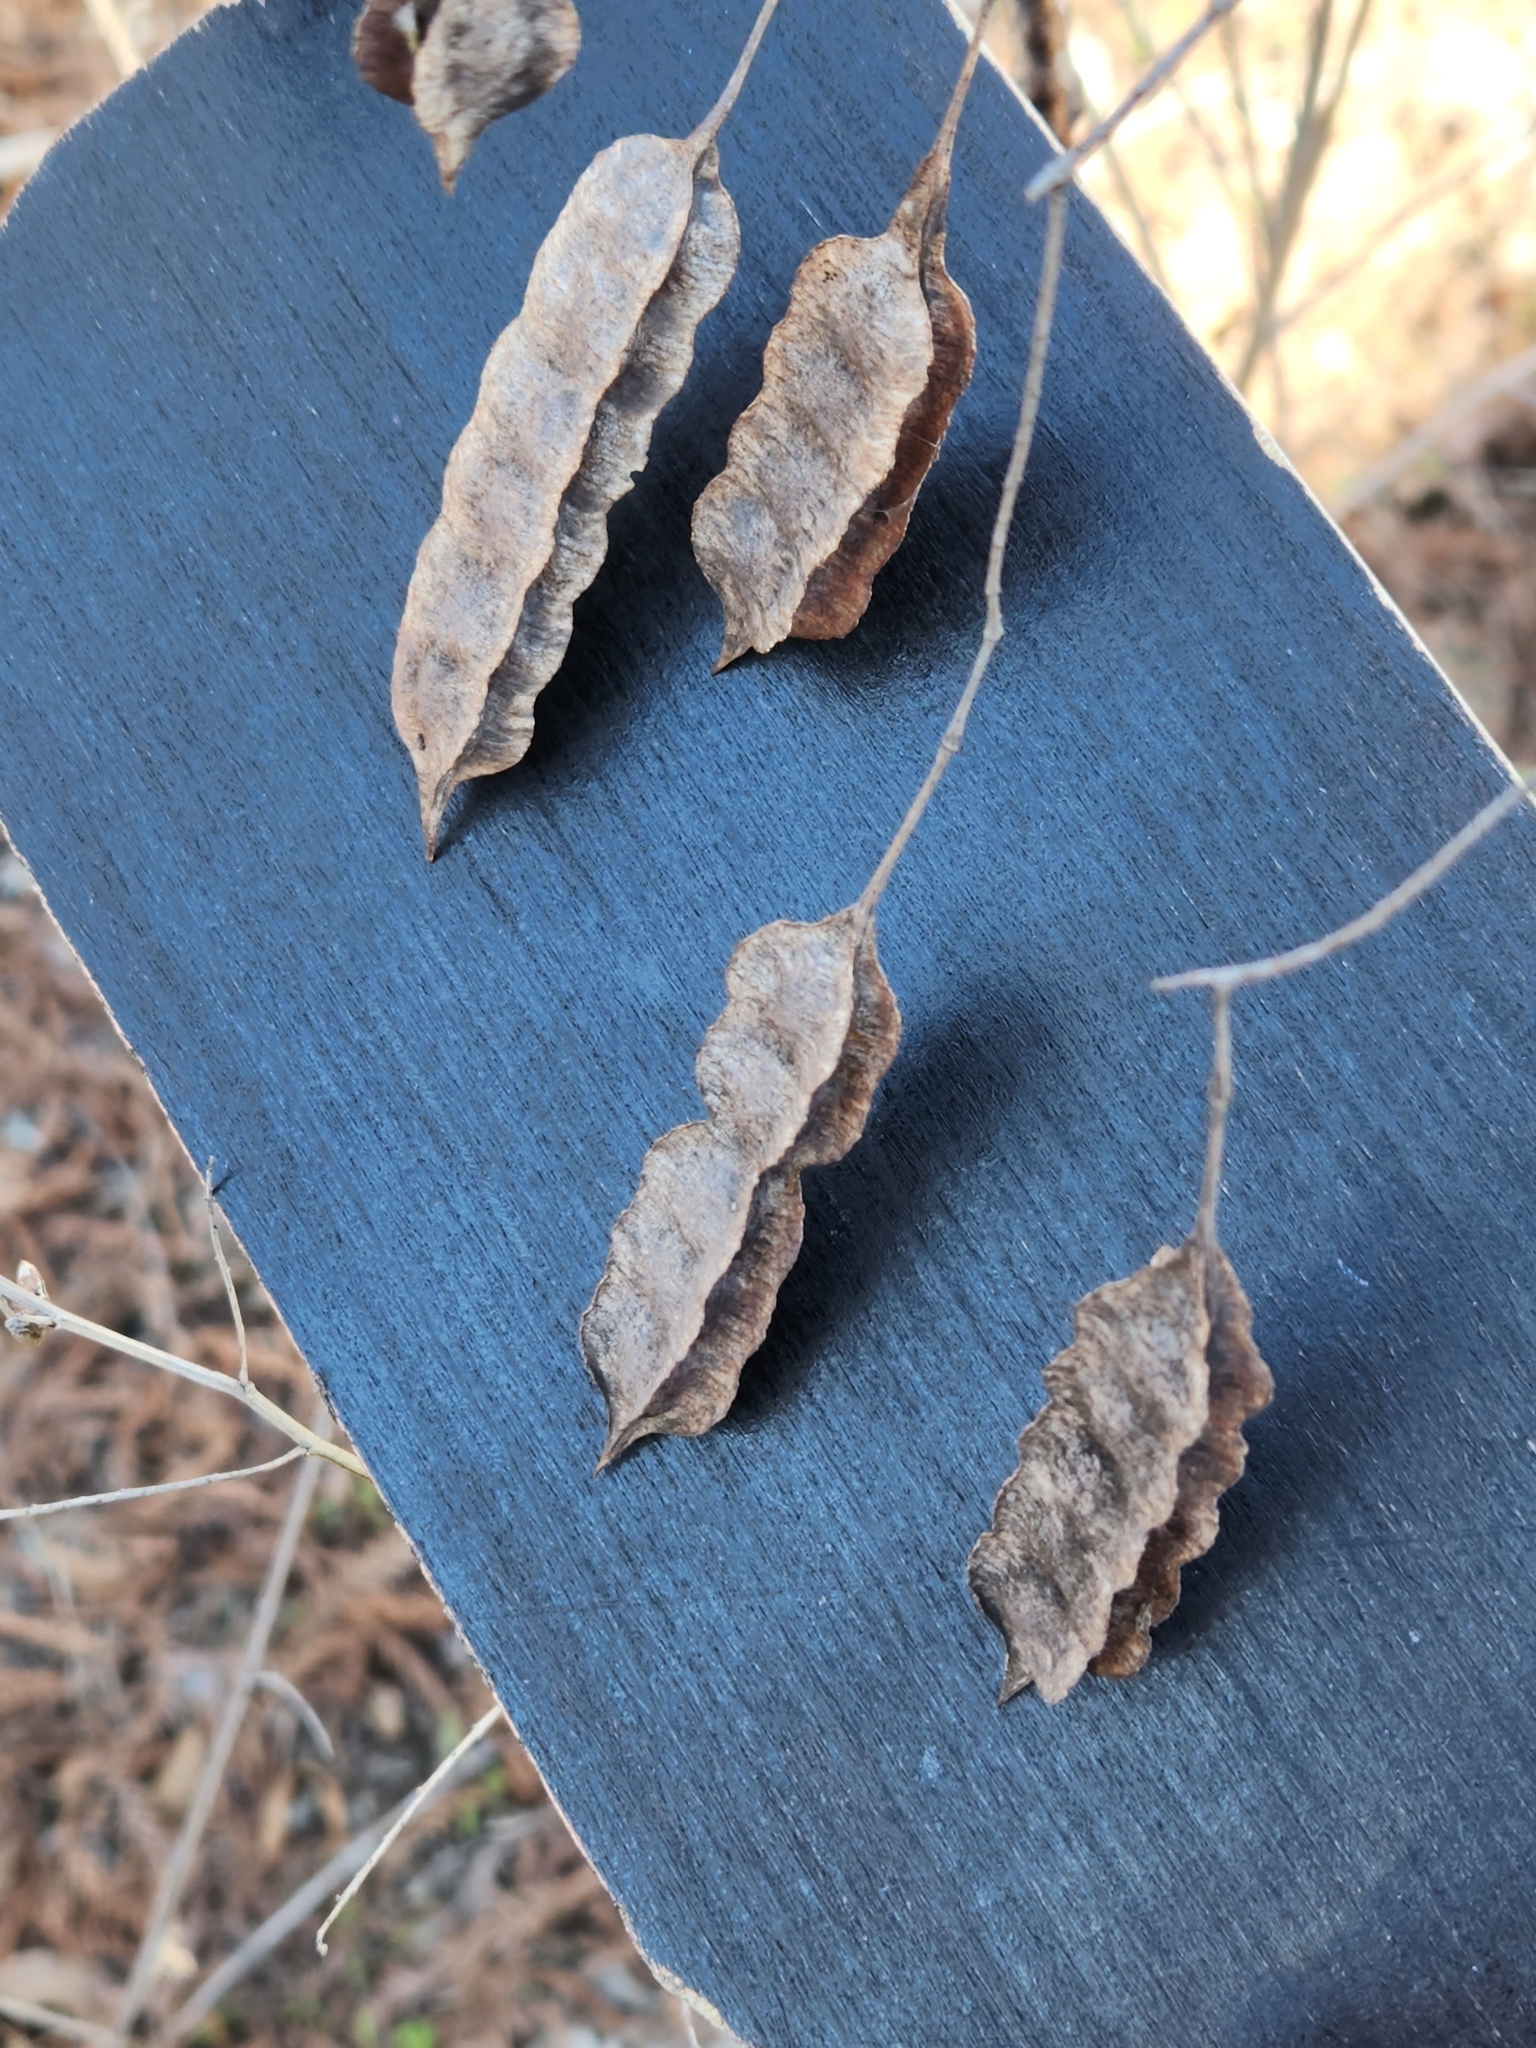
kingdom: Plantae
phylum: Tracheophyta
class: Magnoliopsida
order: Fabales
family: Fabaceae
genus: Sesbania
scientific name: Sesbania drummondii
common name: Poison-bean
